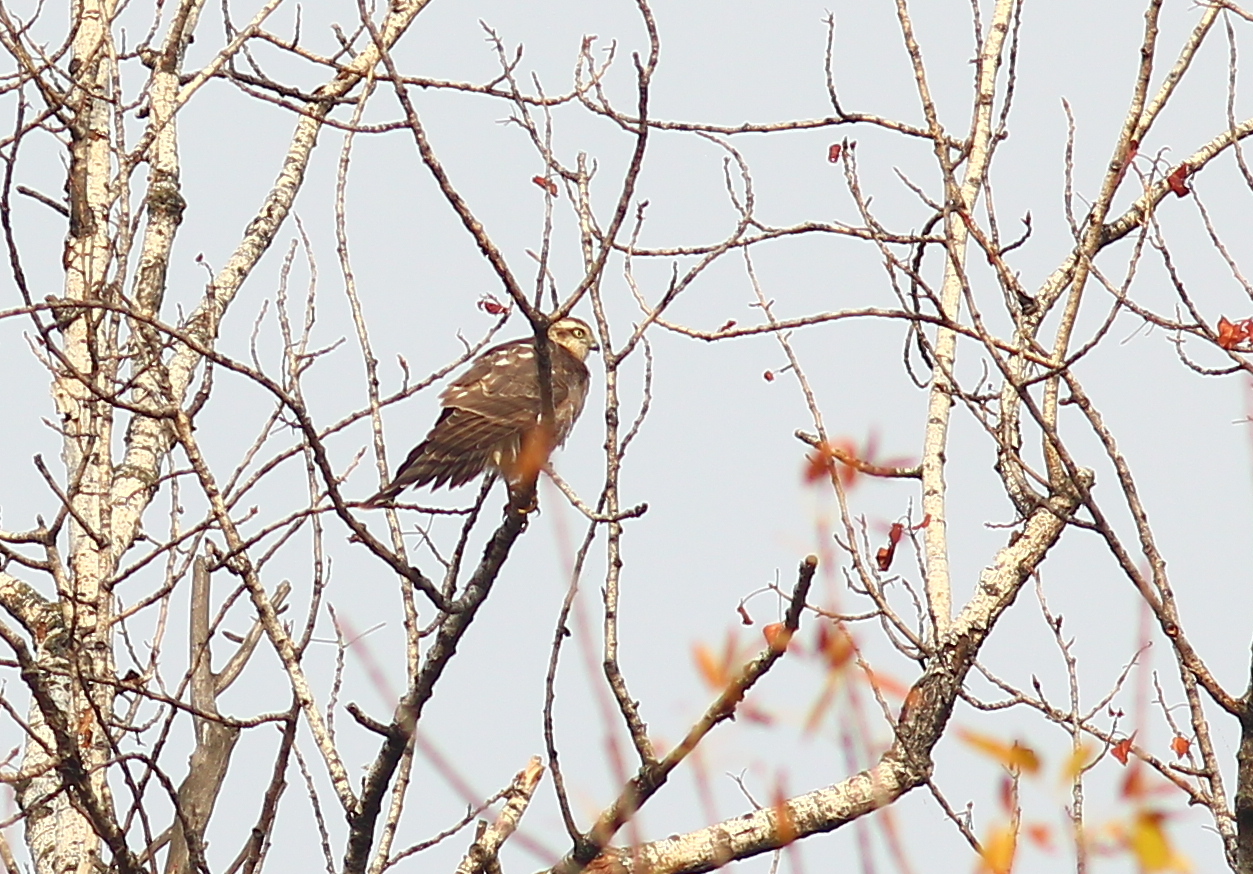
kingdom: Animalia
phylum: Chordata
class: Aves
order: Accipitriformes
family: Accipitridae
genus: Accipiter
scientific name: Accipiter nisus
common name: Eurasian sparrowhawk
